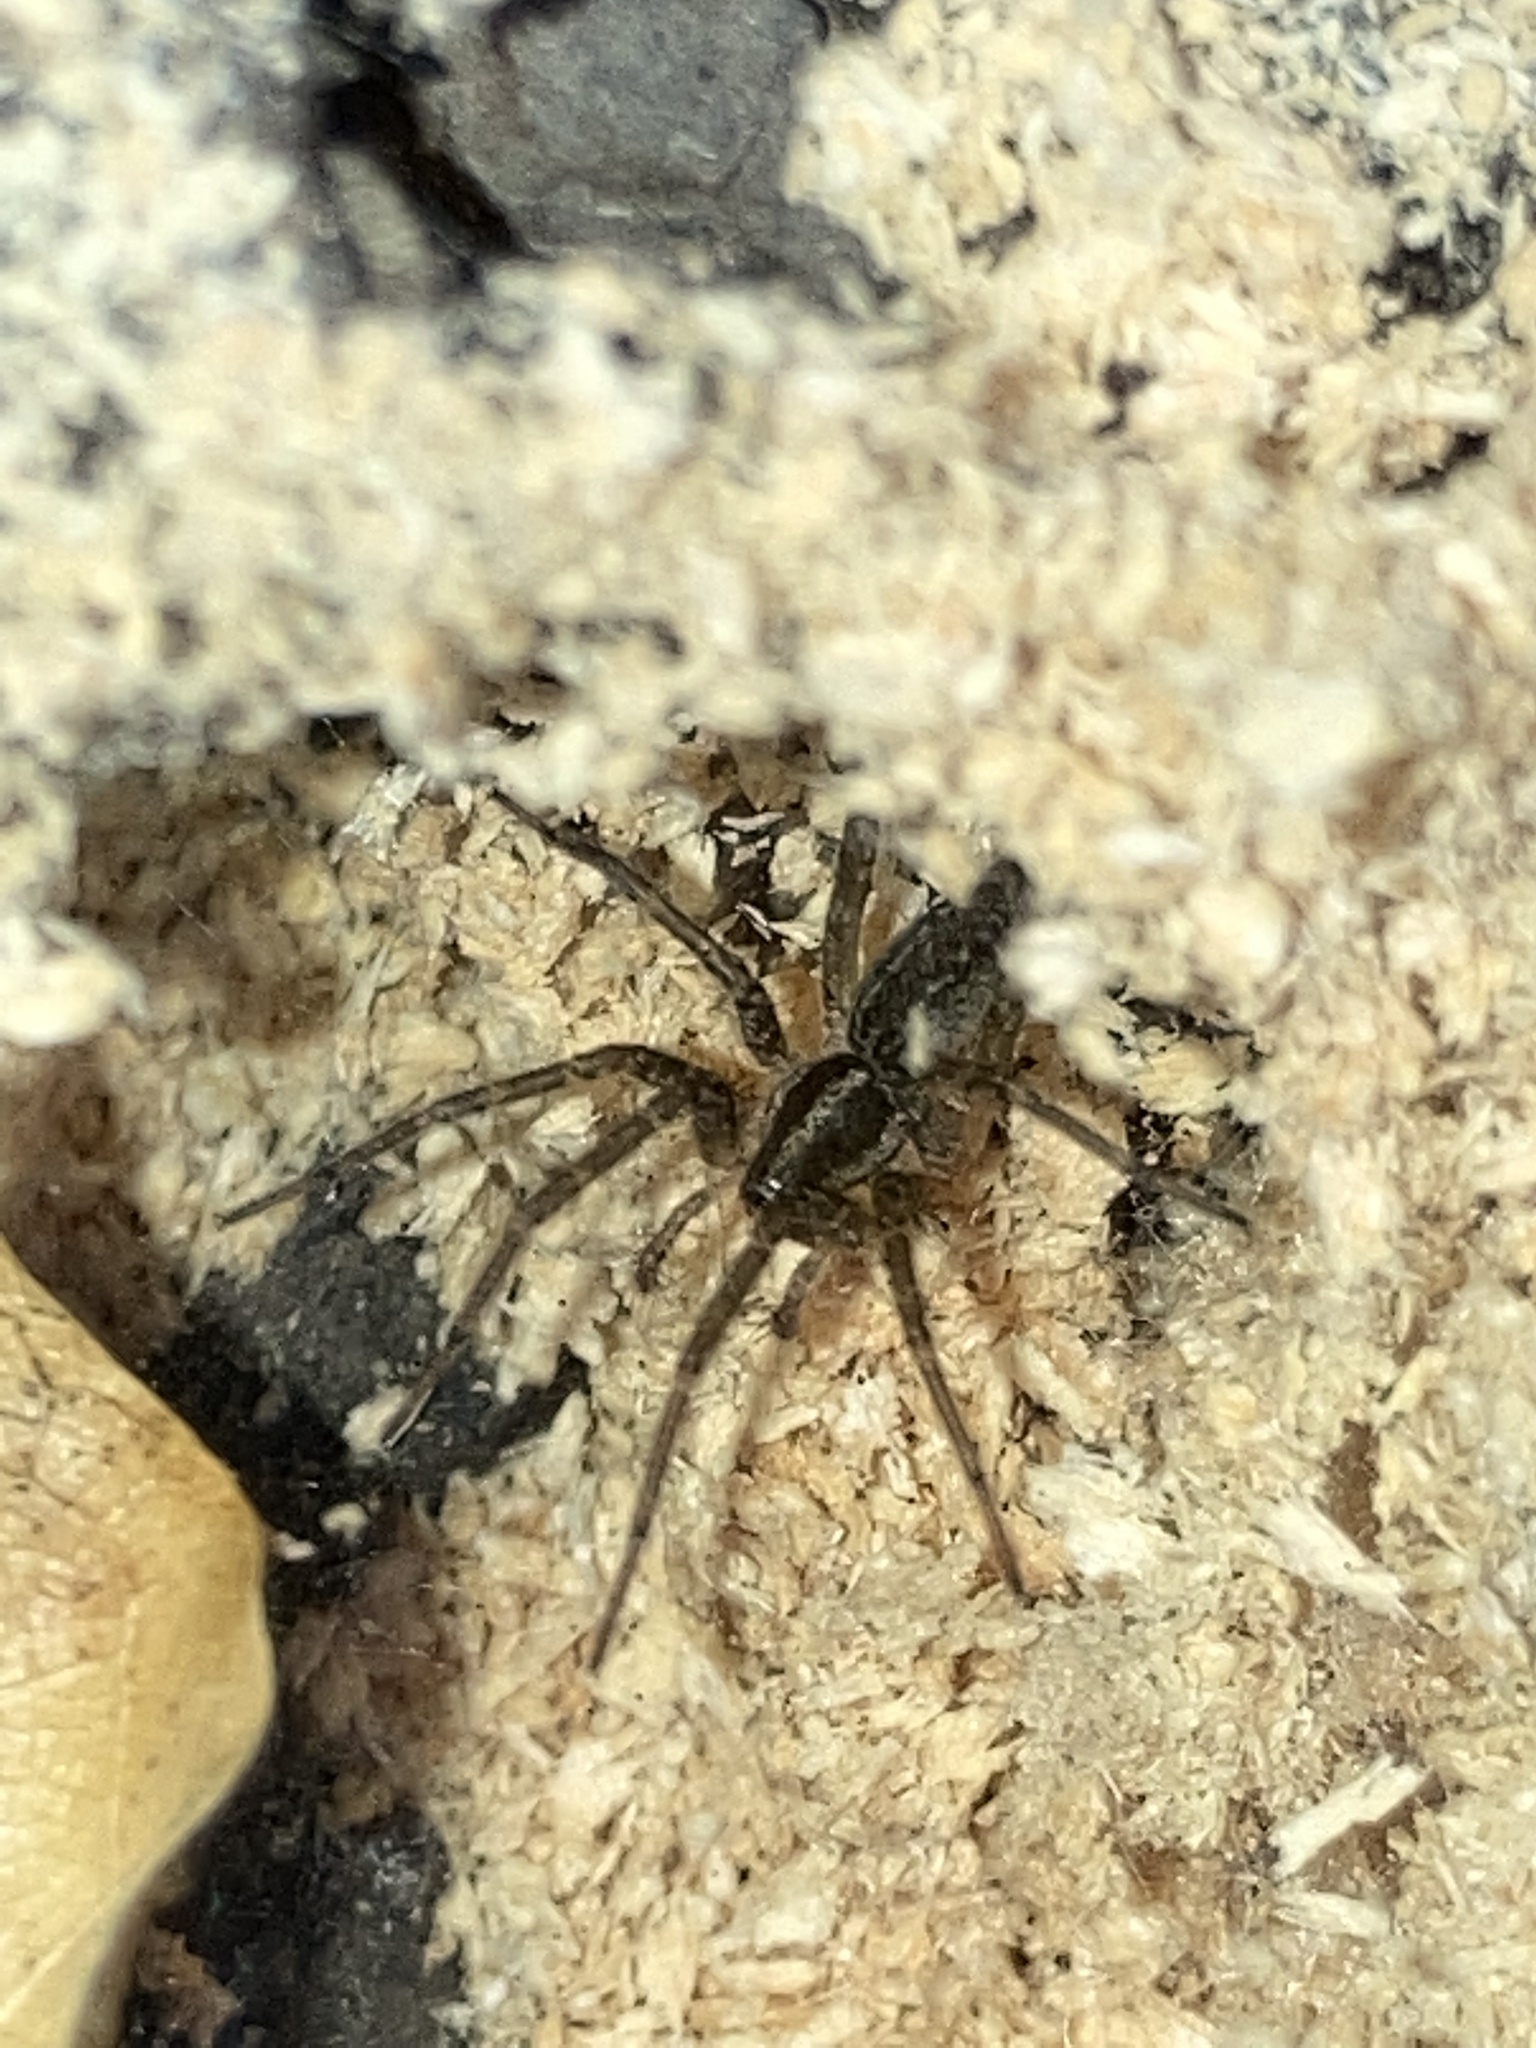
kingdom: Animalia
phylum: Arthropoda
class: Arachnida
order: Araneae
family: Agelenidae
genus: Agelenopsis
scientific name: Agelenopsis
